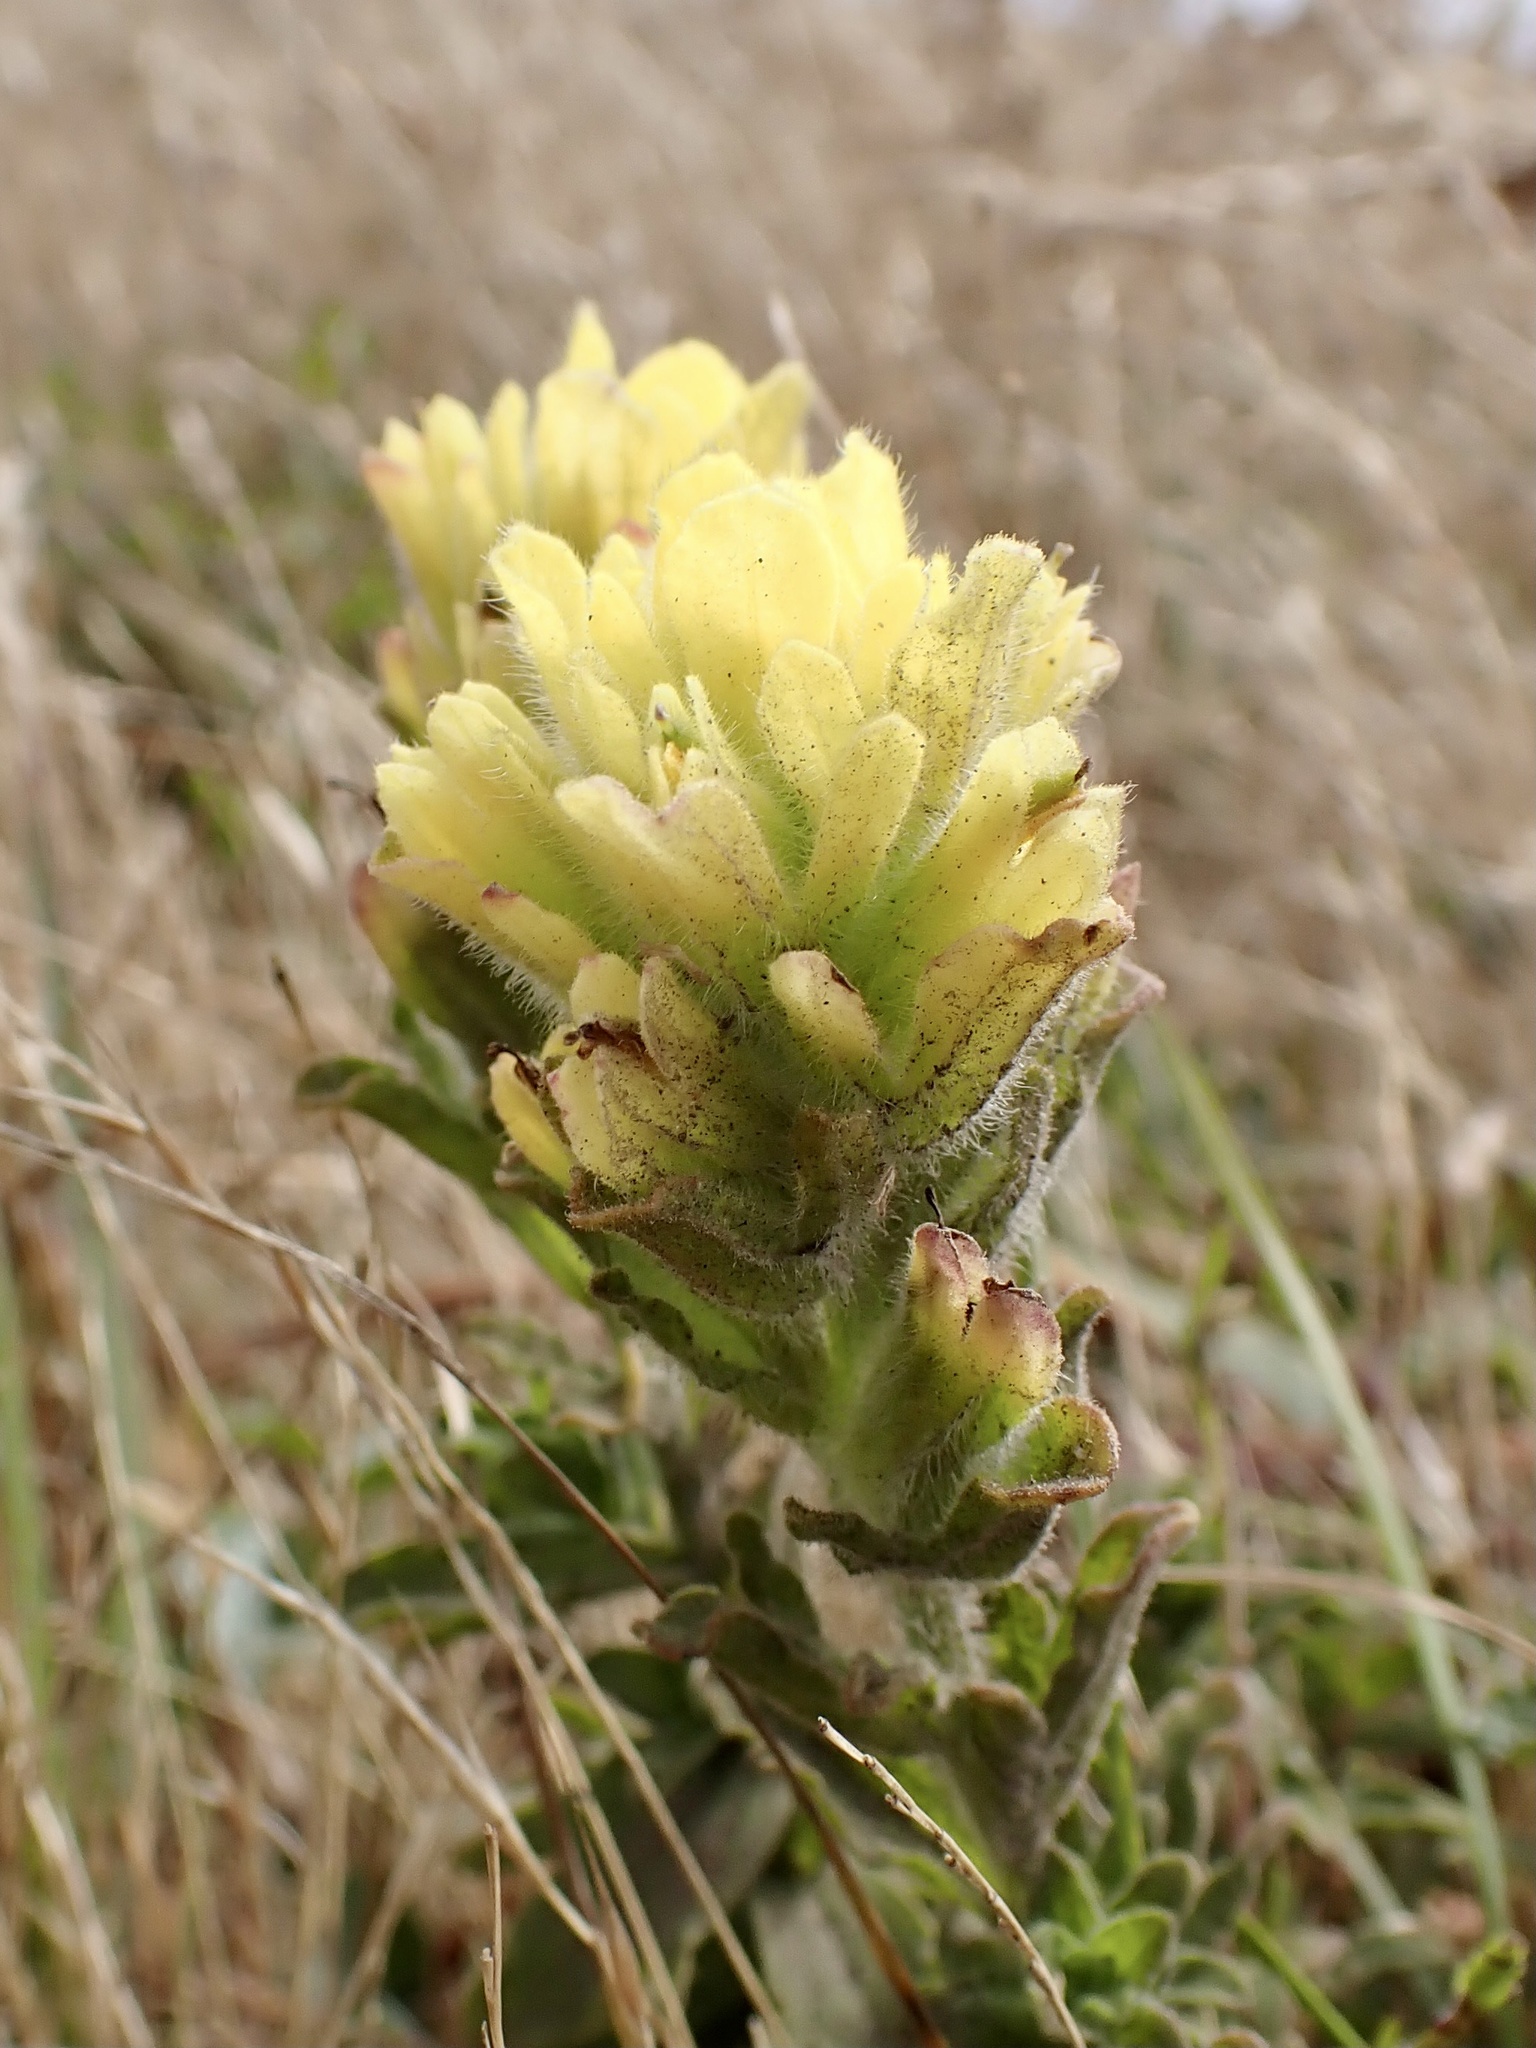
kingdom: Plantae
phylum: Tracheophyta
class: Magnoliopsida
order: Lamiales
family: Orobanchaceae
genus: Castilleja
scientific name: Castilleja wightii
